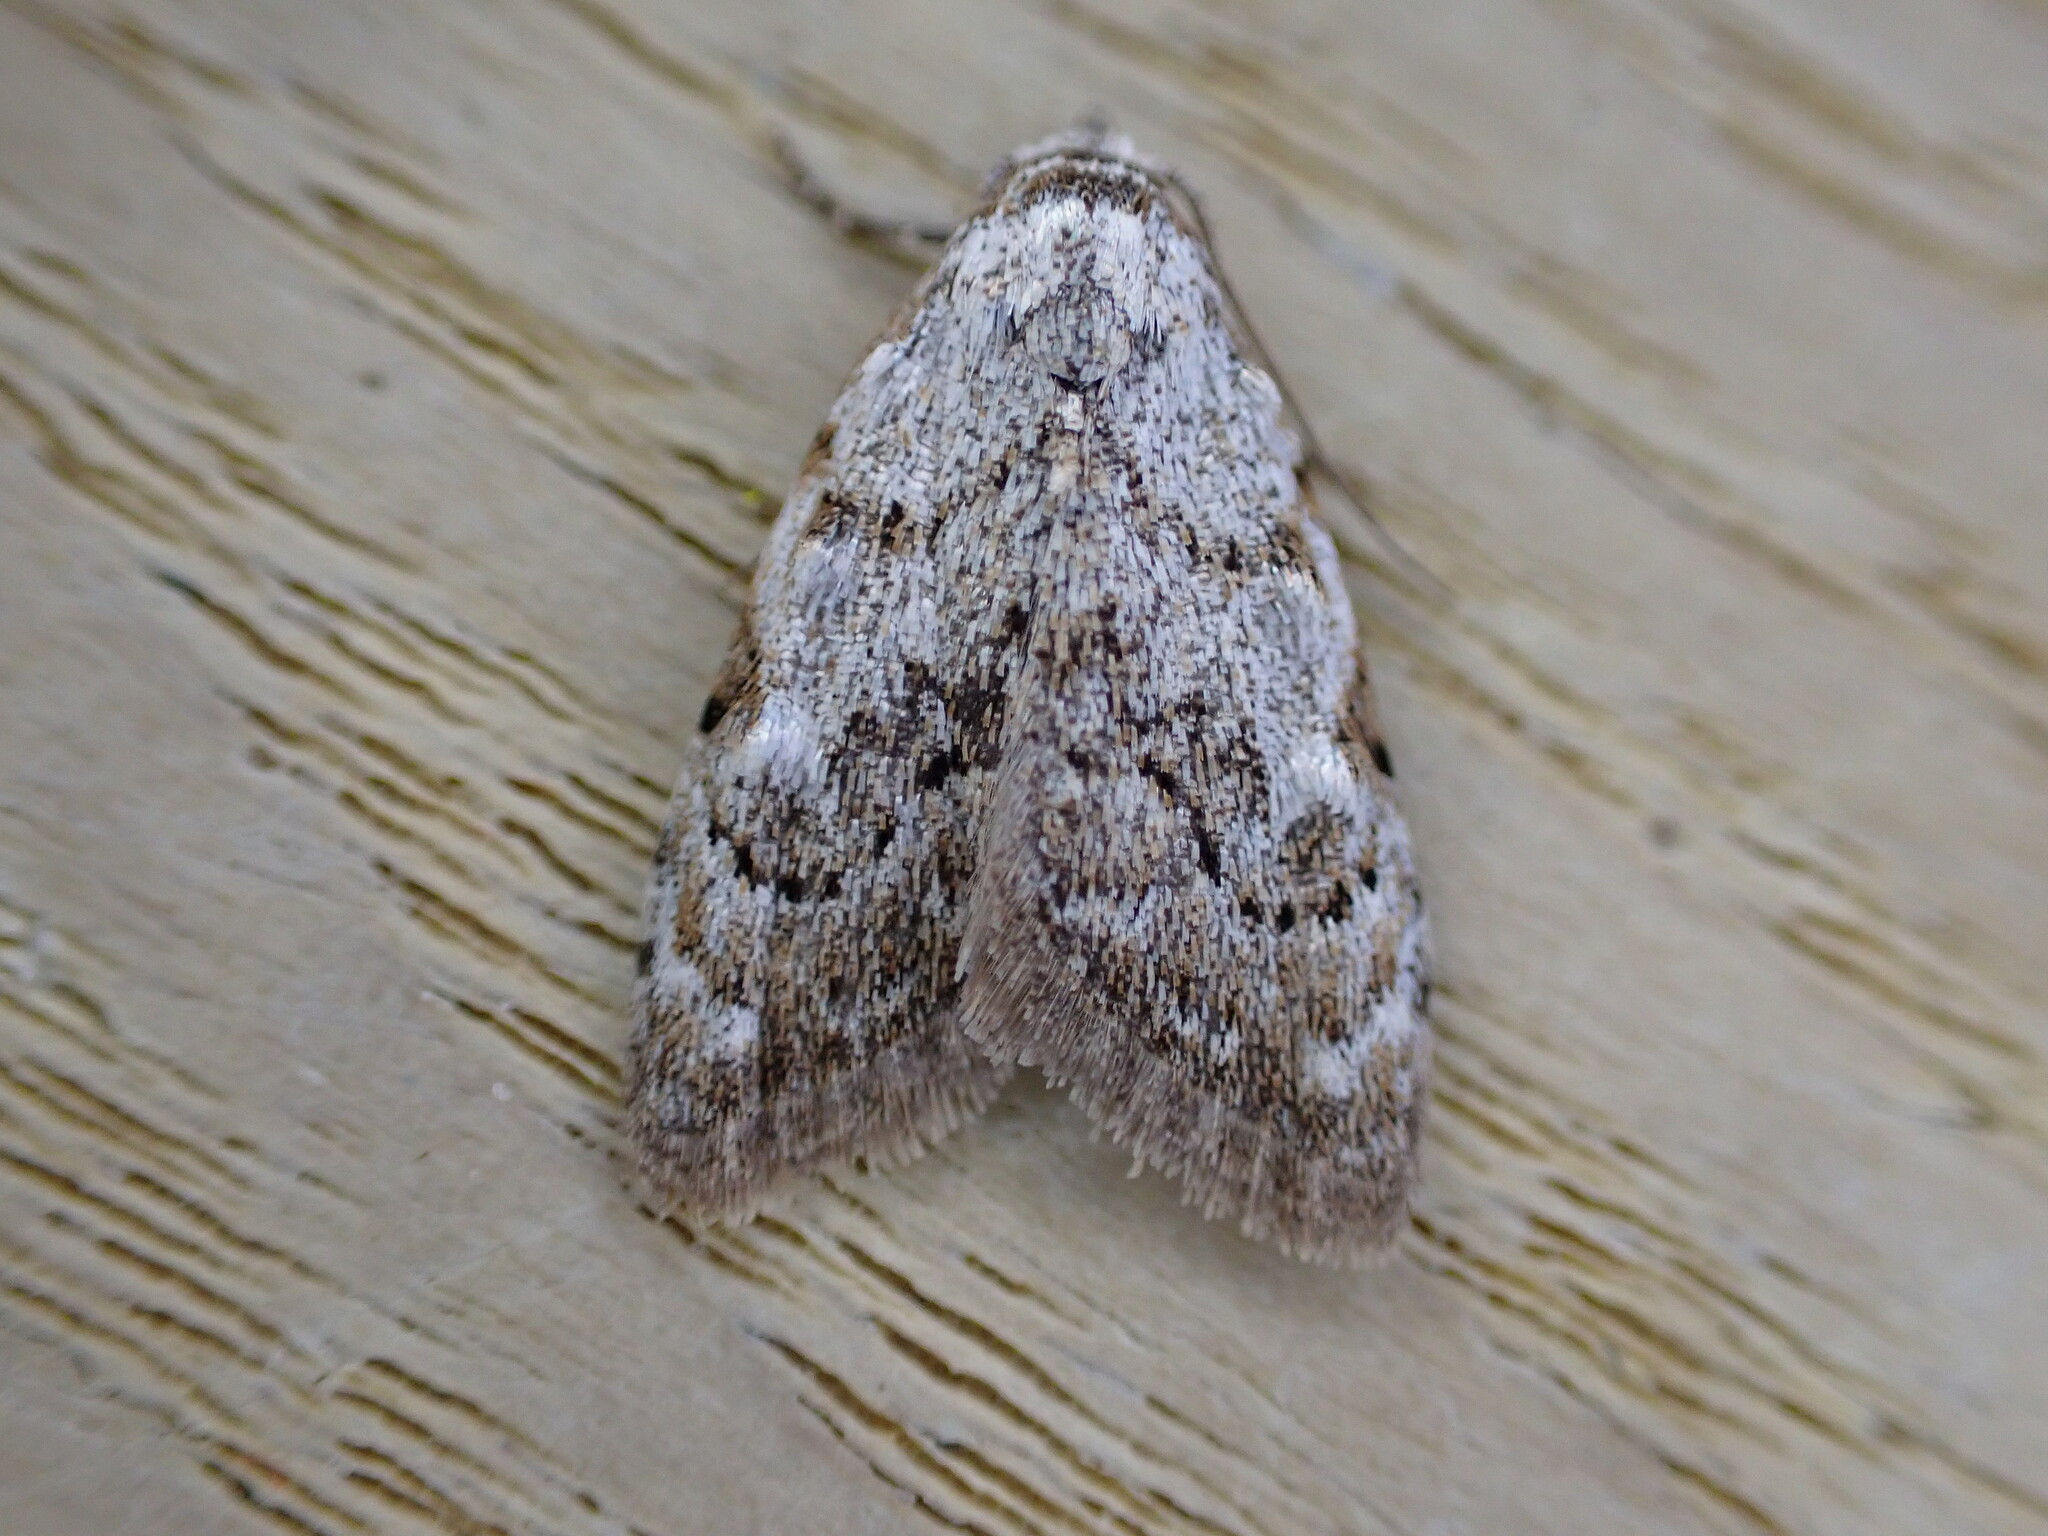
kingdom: Animalia
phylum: Arthropoda
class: Insecta
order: Lepidoptera
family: Nolidae
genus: Nola
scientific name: Nola confusalis
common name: Least black arches
